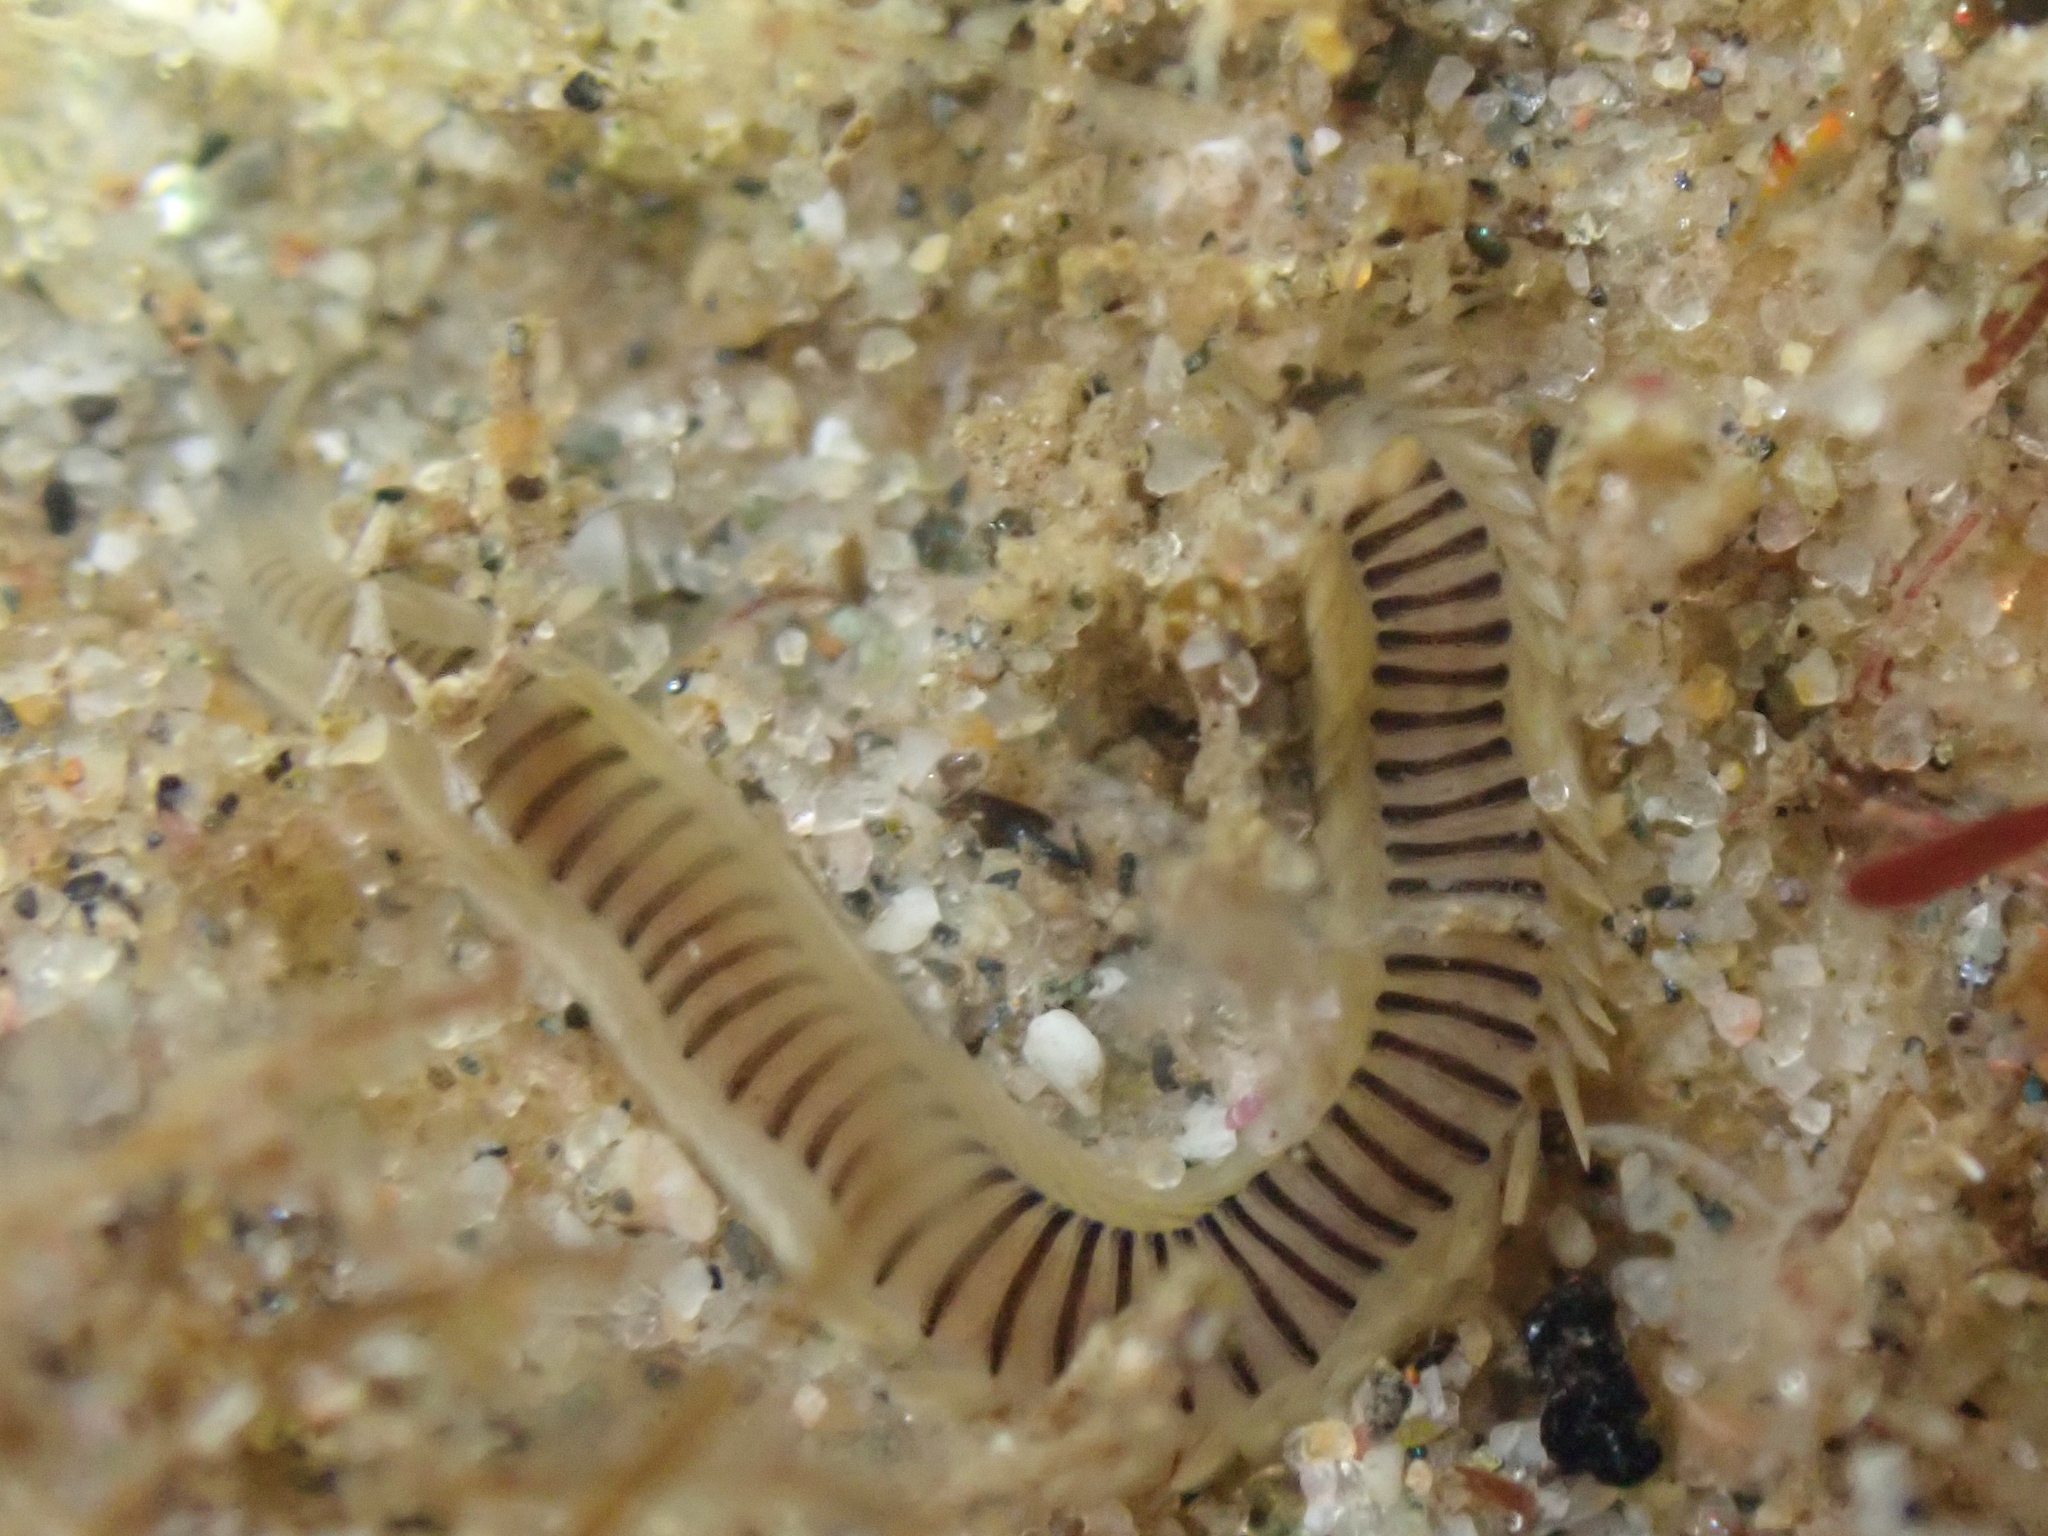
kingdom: Animalia
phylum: Annelida
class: Polychaeta
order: Phyllodocida
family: Phyllodocidae
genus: Pterocirrus
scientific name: Pterocirrus burtoni
